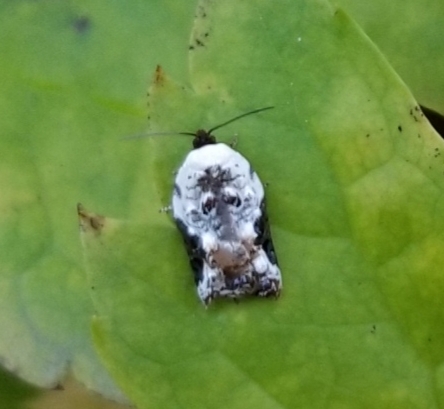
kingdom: Animalia
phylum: Arthropoda
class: Insecta
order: Lepidoptera
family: Tortricidae
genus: Acleris
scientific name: Acleris nivisellana
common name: Snowy-shouldered acleris moth
